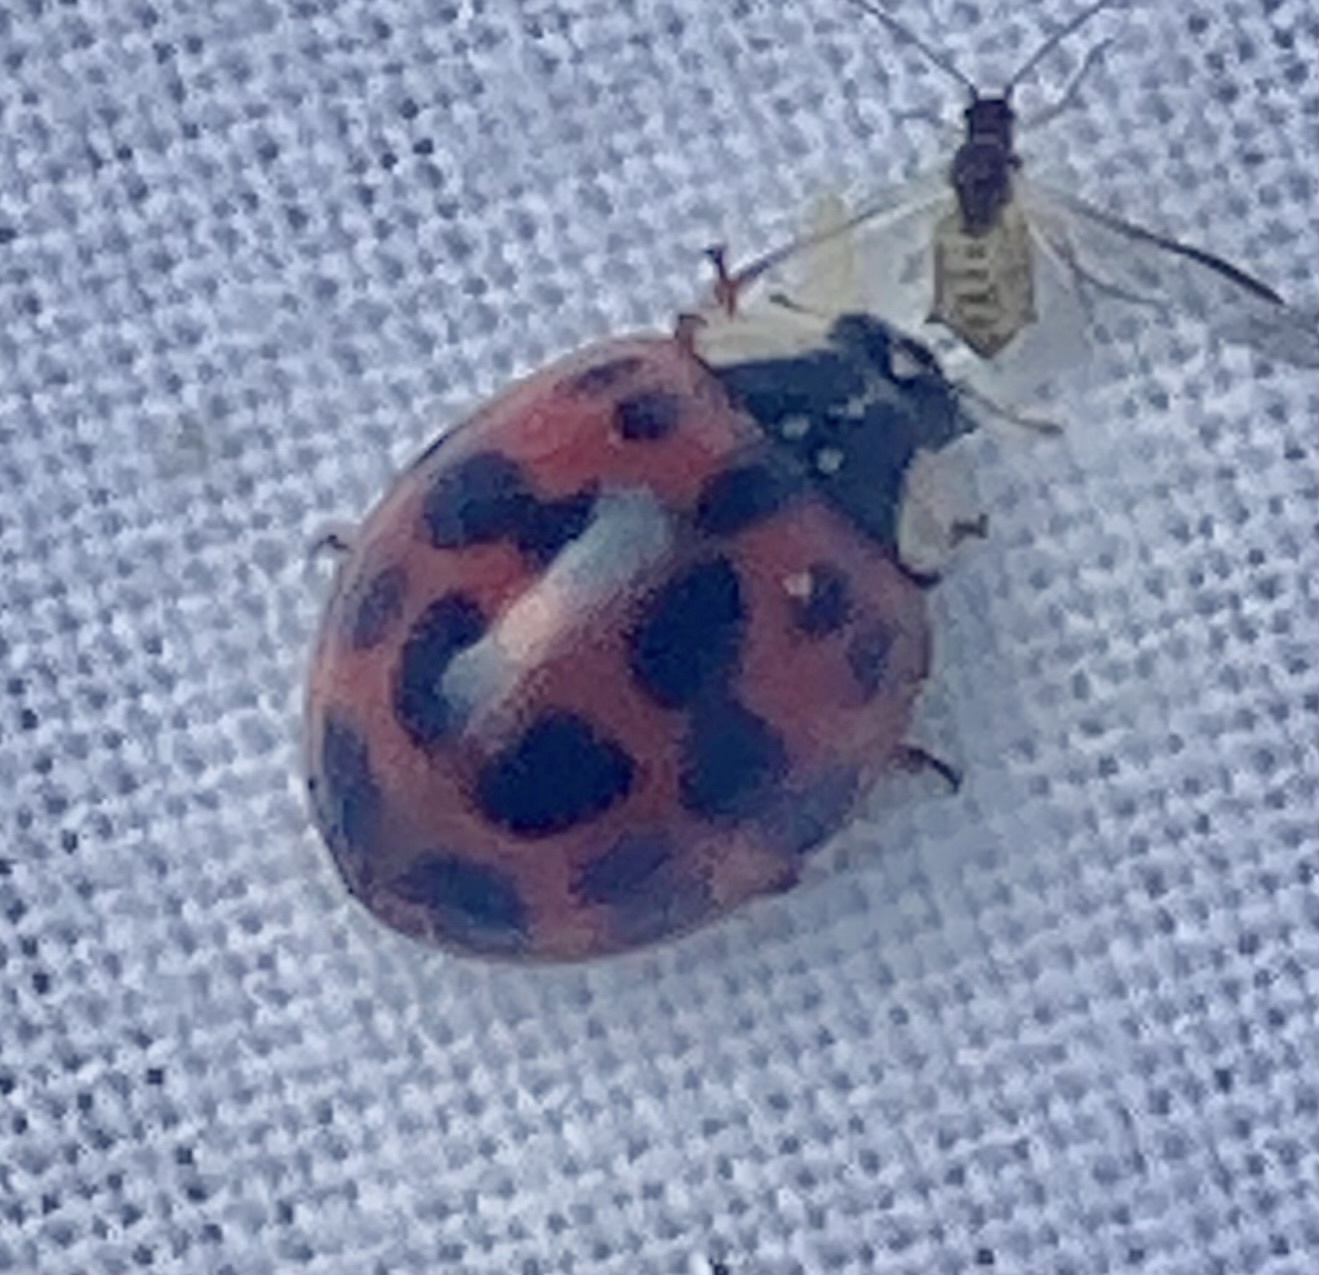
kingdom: Animalia
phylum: Arthropoda
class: Insecta
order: Coleoptera
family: Coccinellidae
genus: Harmonia
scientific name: Harmonia axyridis
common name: Harlequin ladybird
